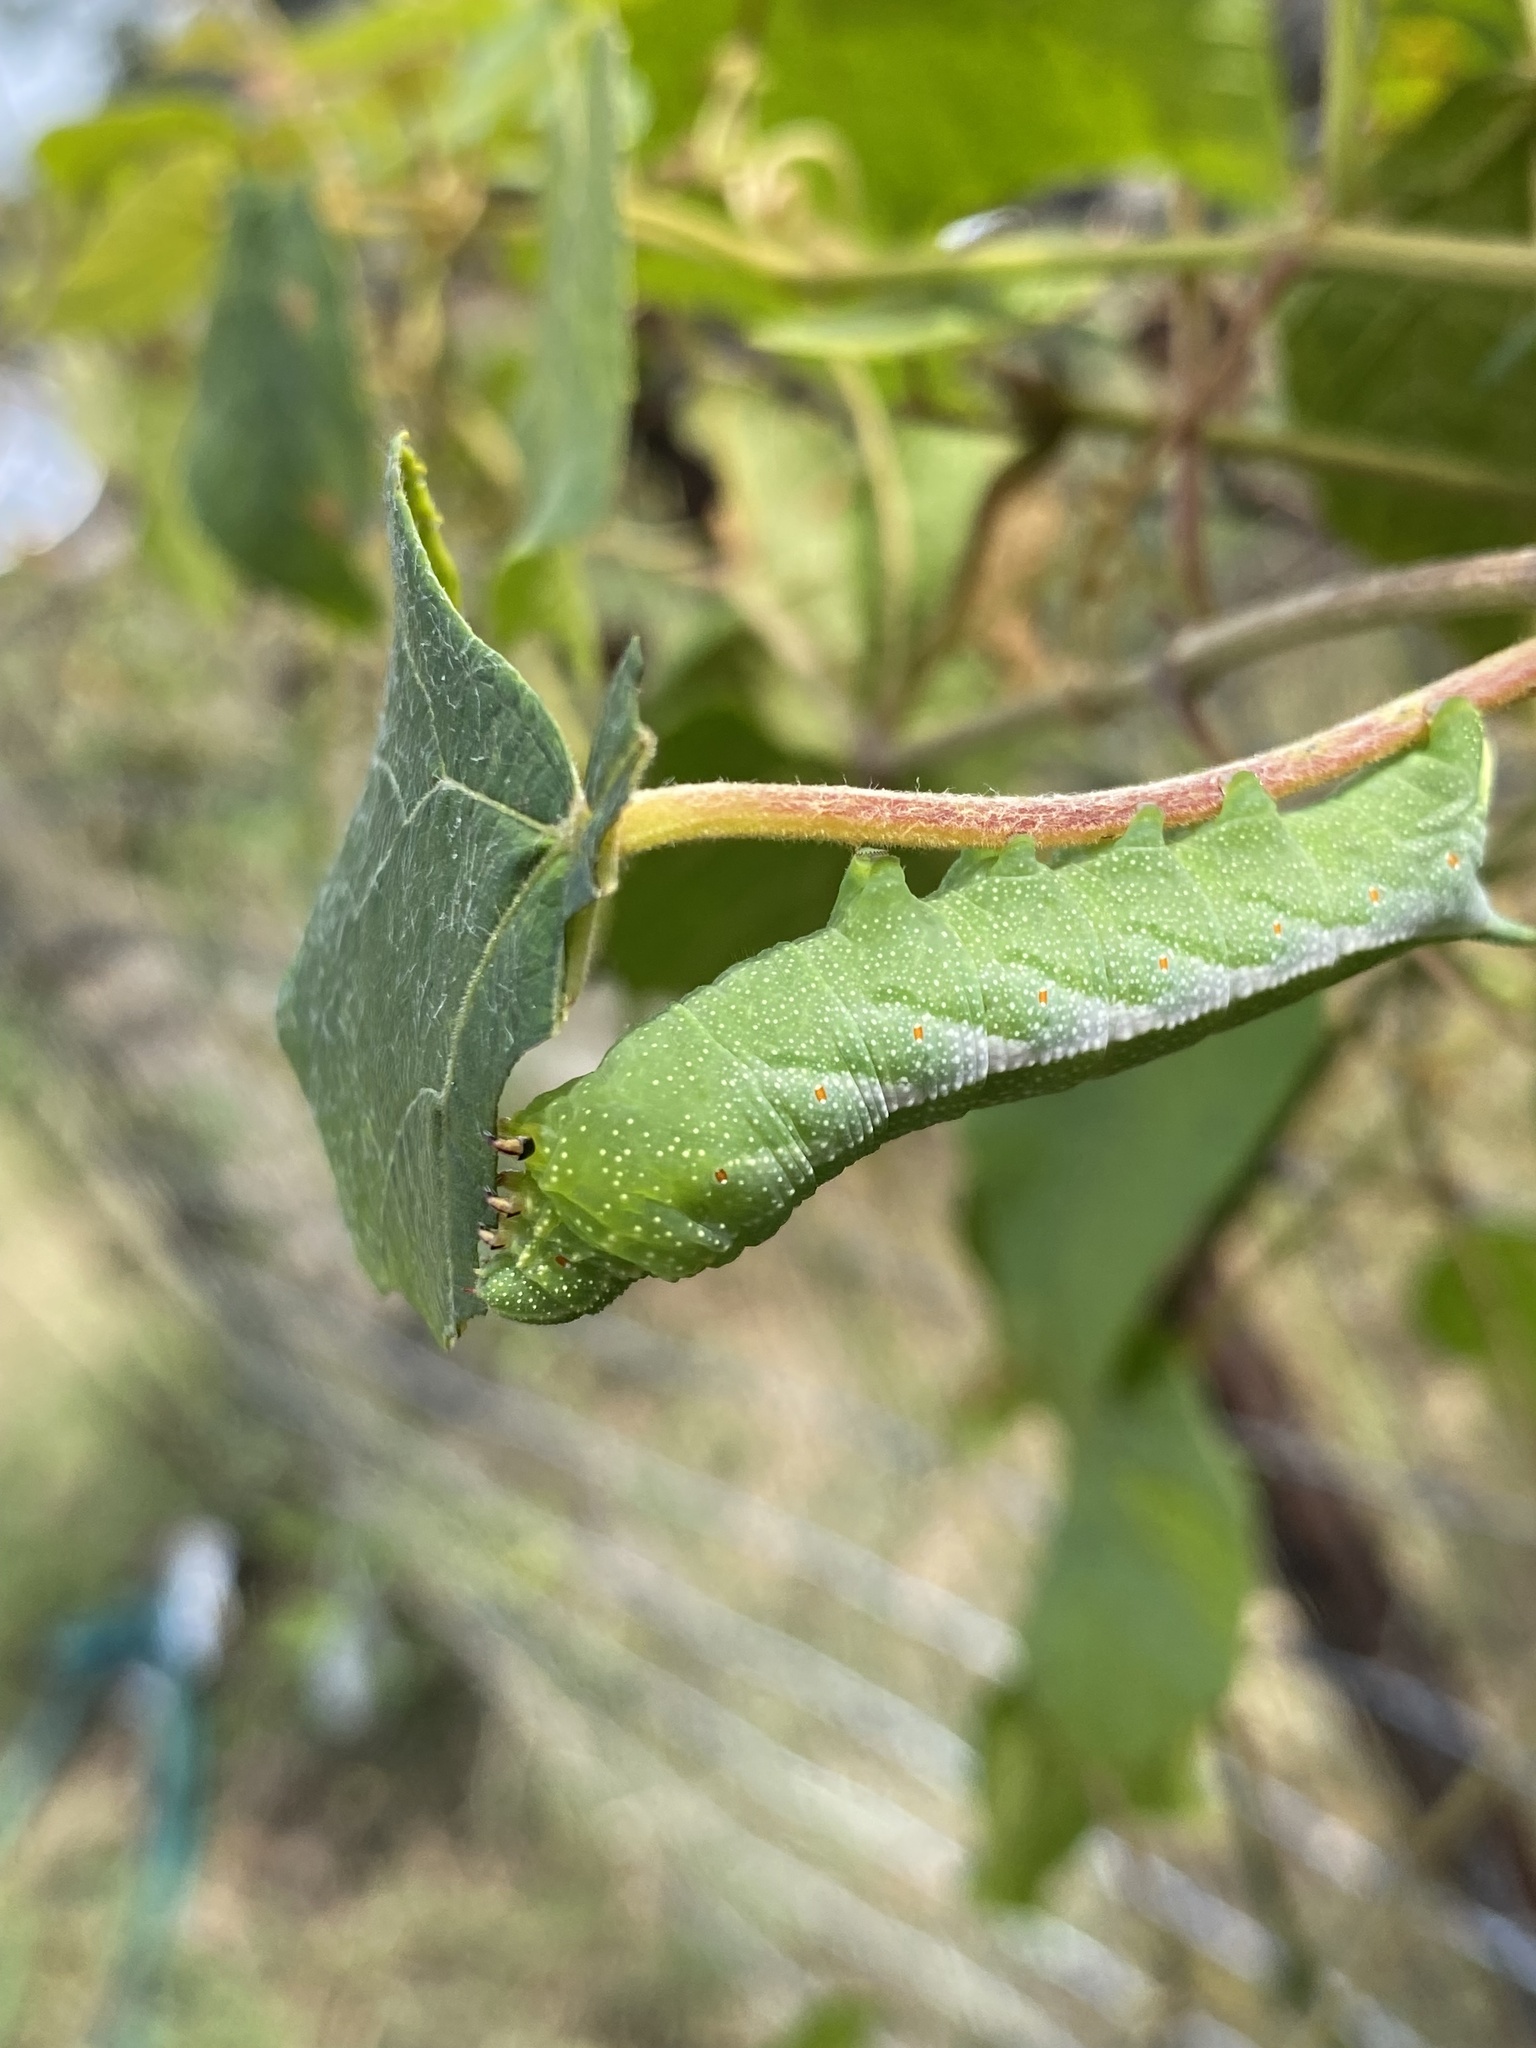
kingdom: Animalia
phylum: Arthropoda
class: Insecta
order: Lepidoptera
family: Sphingidae
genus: Darapsa
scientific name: Darapsa myron
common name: Hog sphinx
